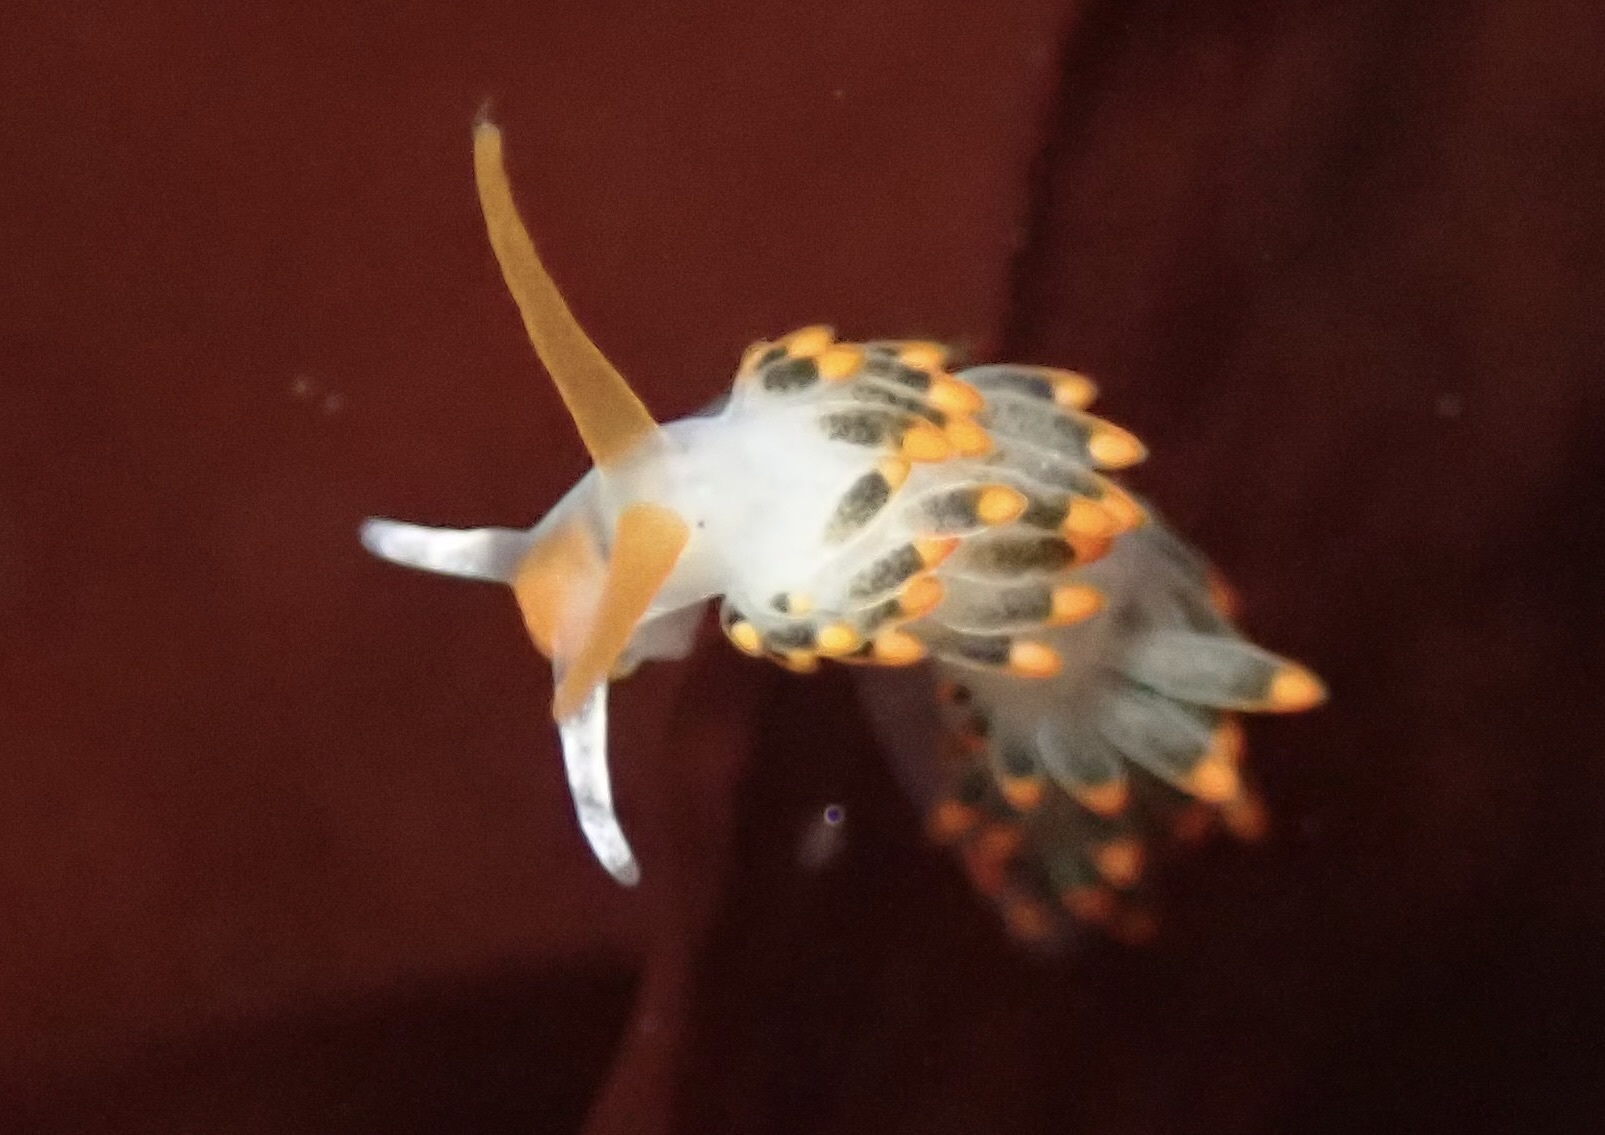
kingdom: Animalia
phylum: Mollusca
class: Gastropoda
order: Nudibranchia
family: Trinchesiidae
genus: Diaphoreolis
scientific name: Diaphoreolis lagunae
